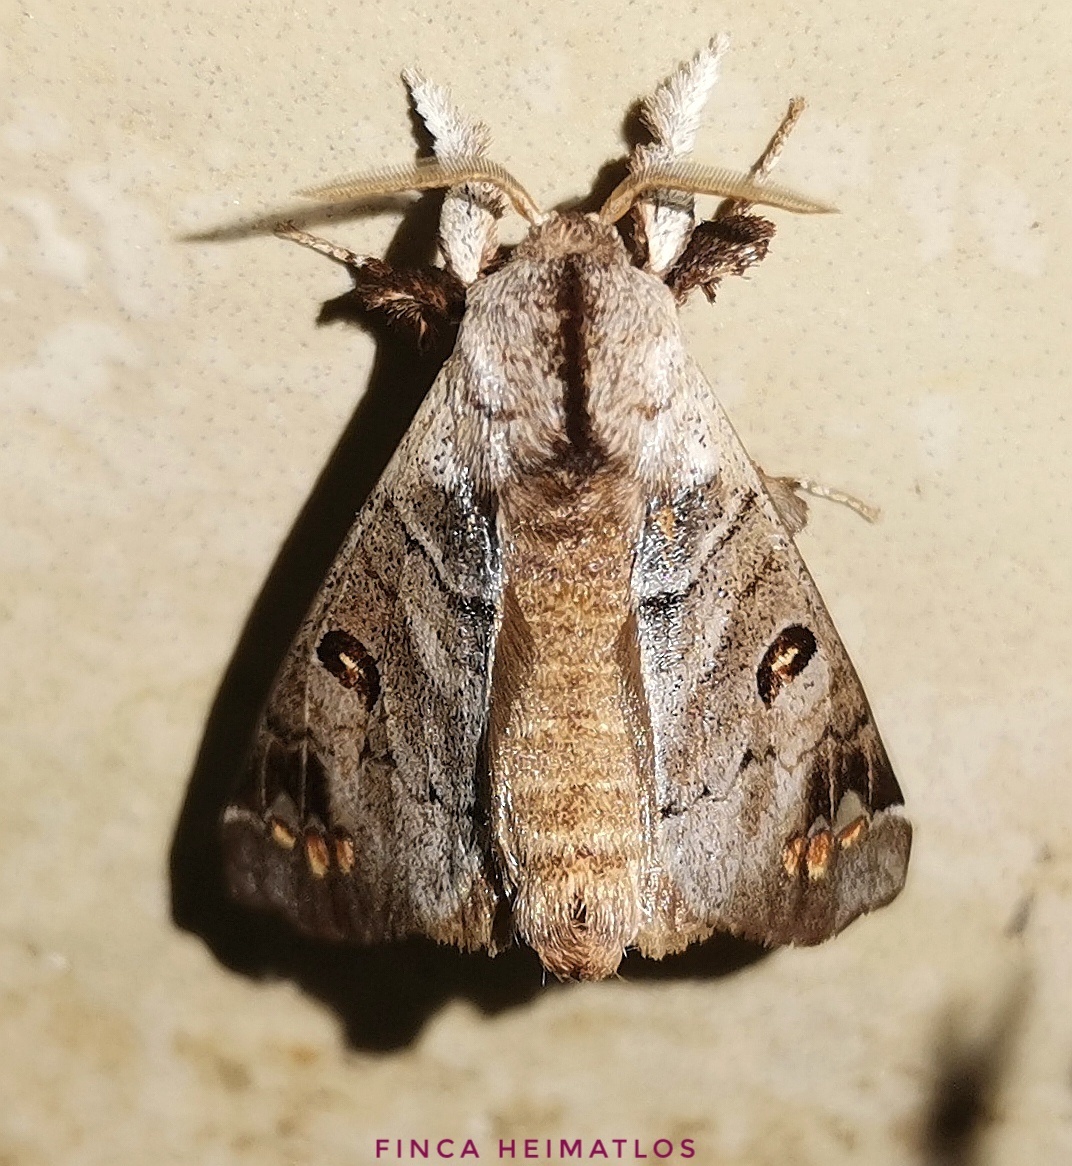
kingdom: Animalia
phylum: Arthropoda
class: Insecta
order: Lepidoptera
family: Apatelodidae
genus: Pantelodes
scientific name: Pantelodes maranhensis
